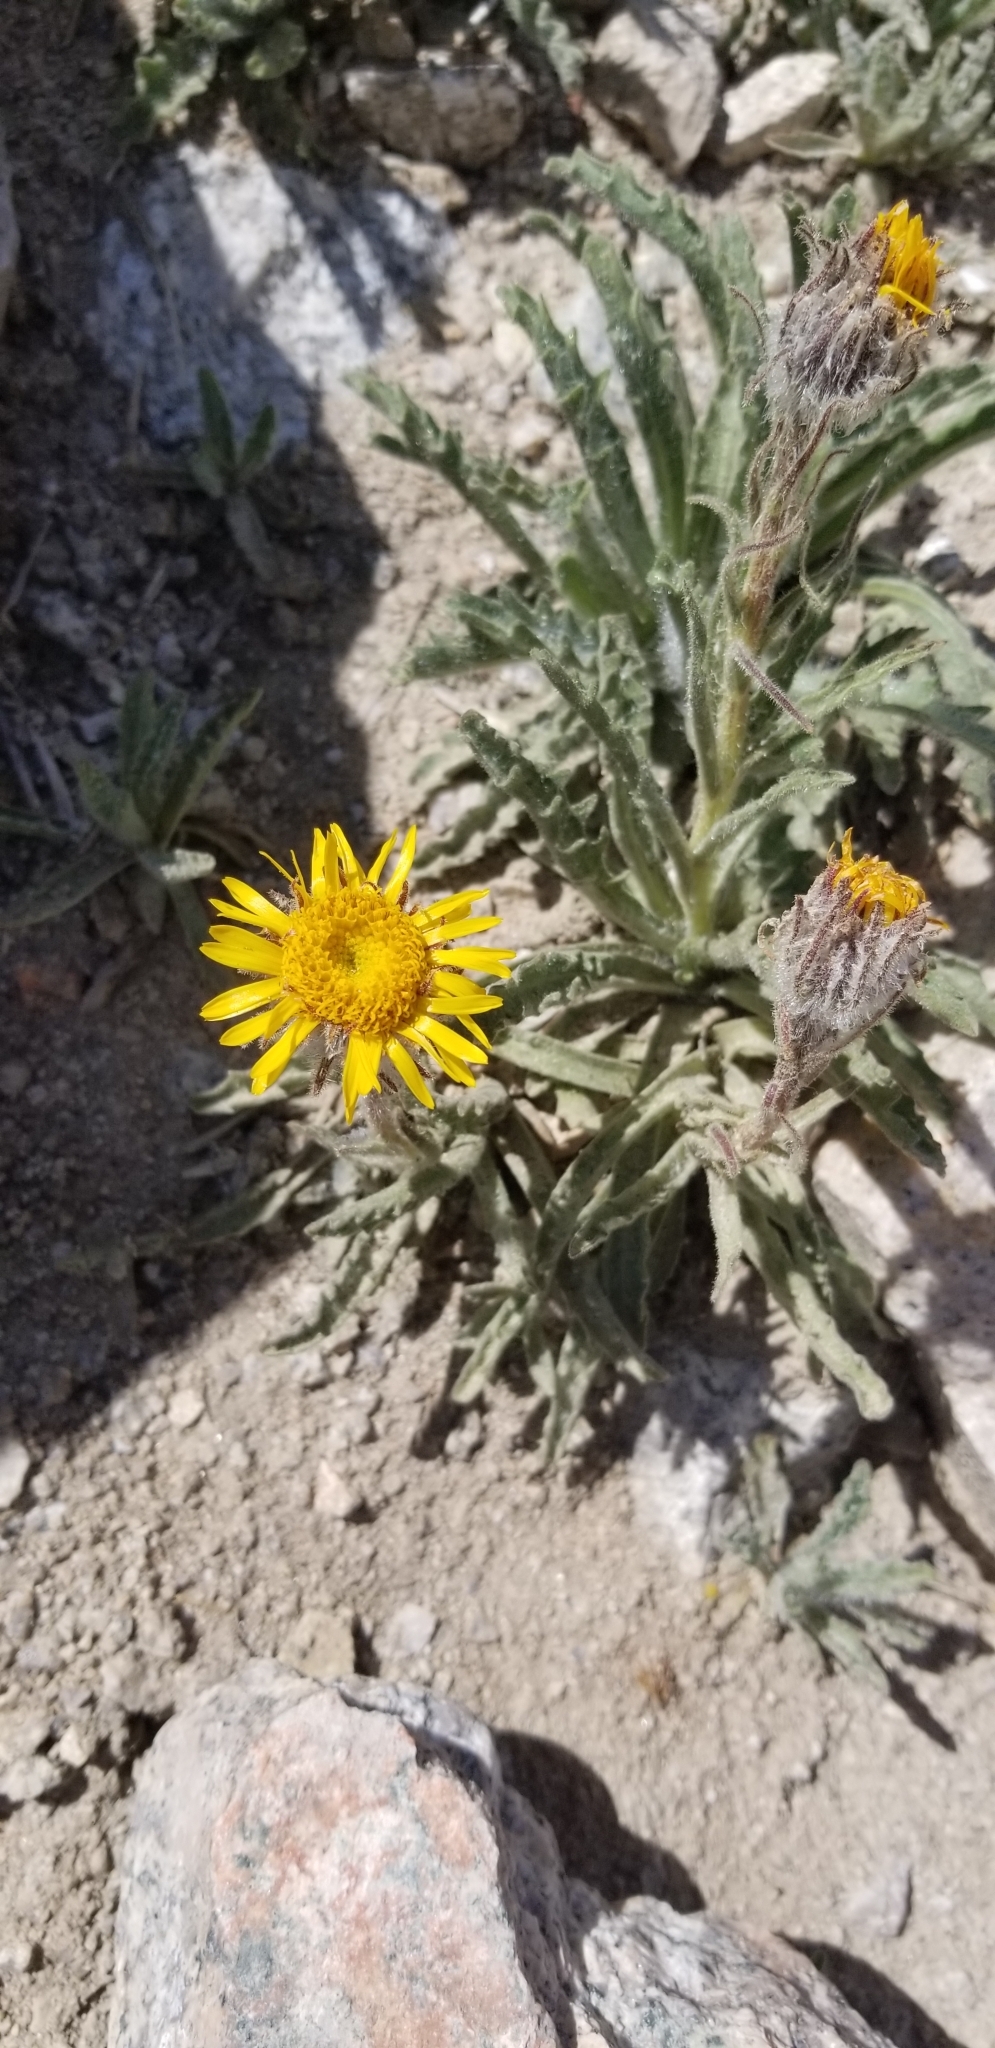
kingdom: Plantae
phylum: Tracheophyta
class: Magnoliopsida
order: Asterales
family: Asteraceae
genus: Hulsea
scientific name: Hulsea algida
